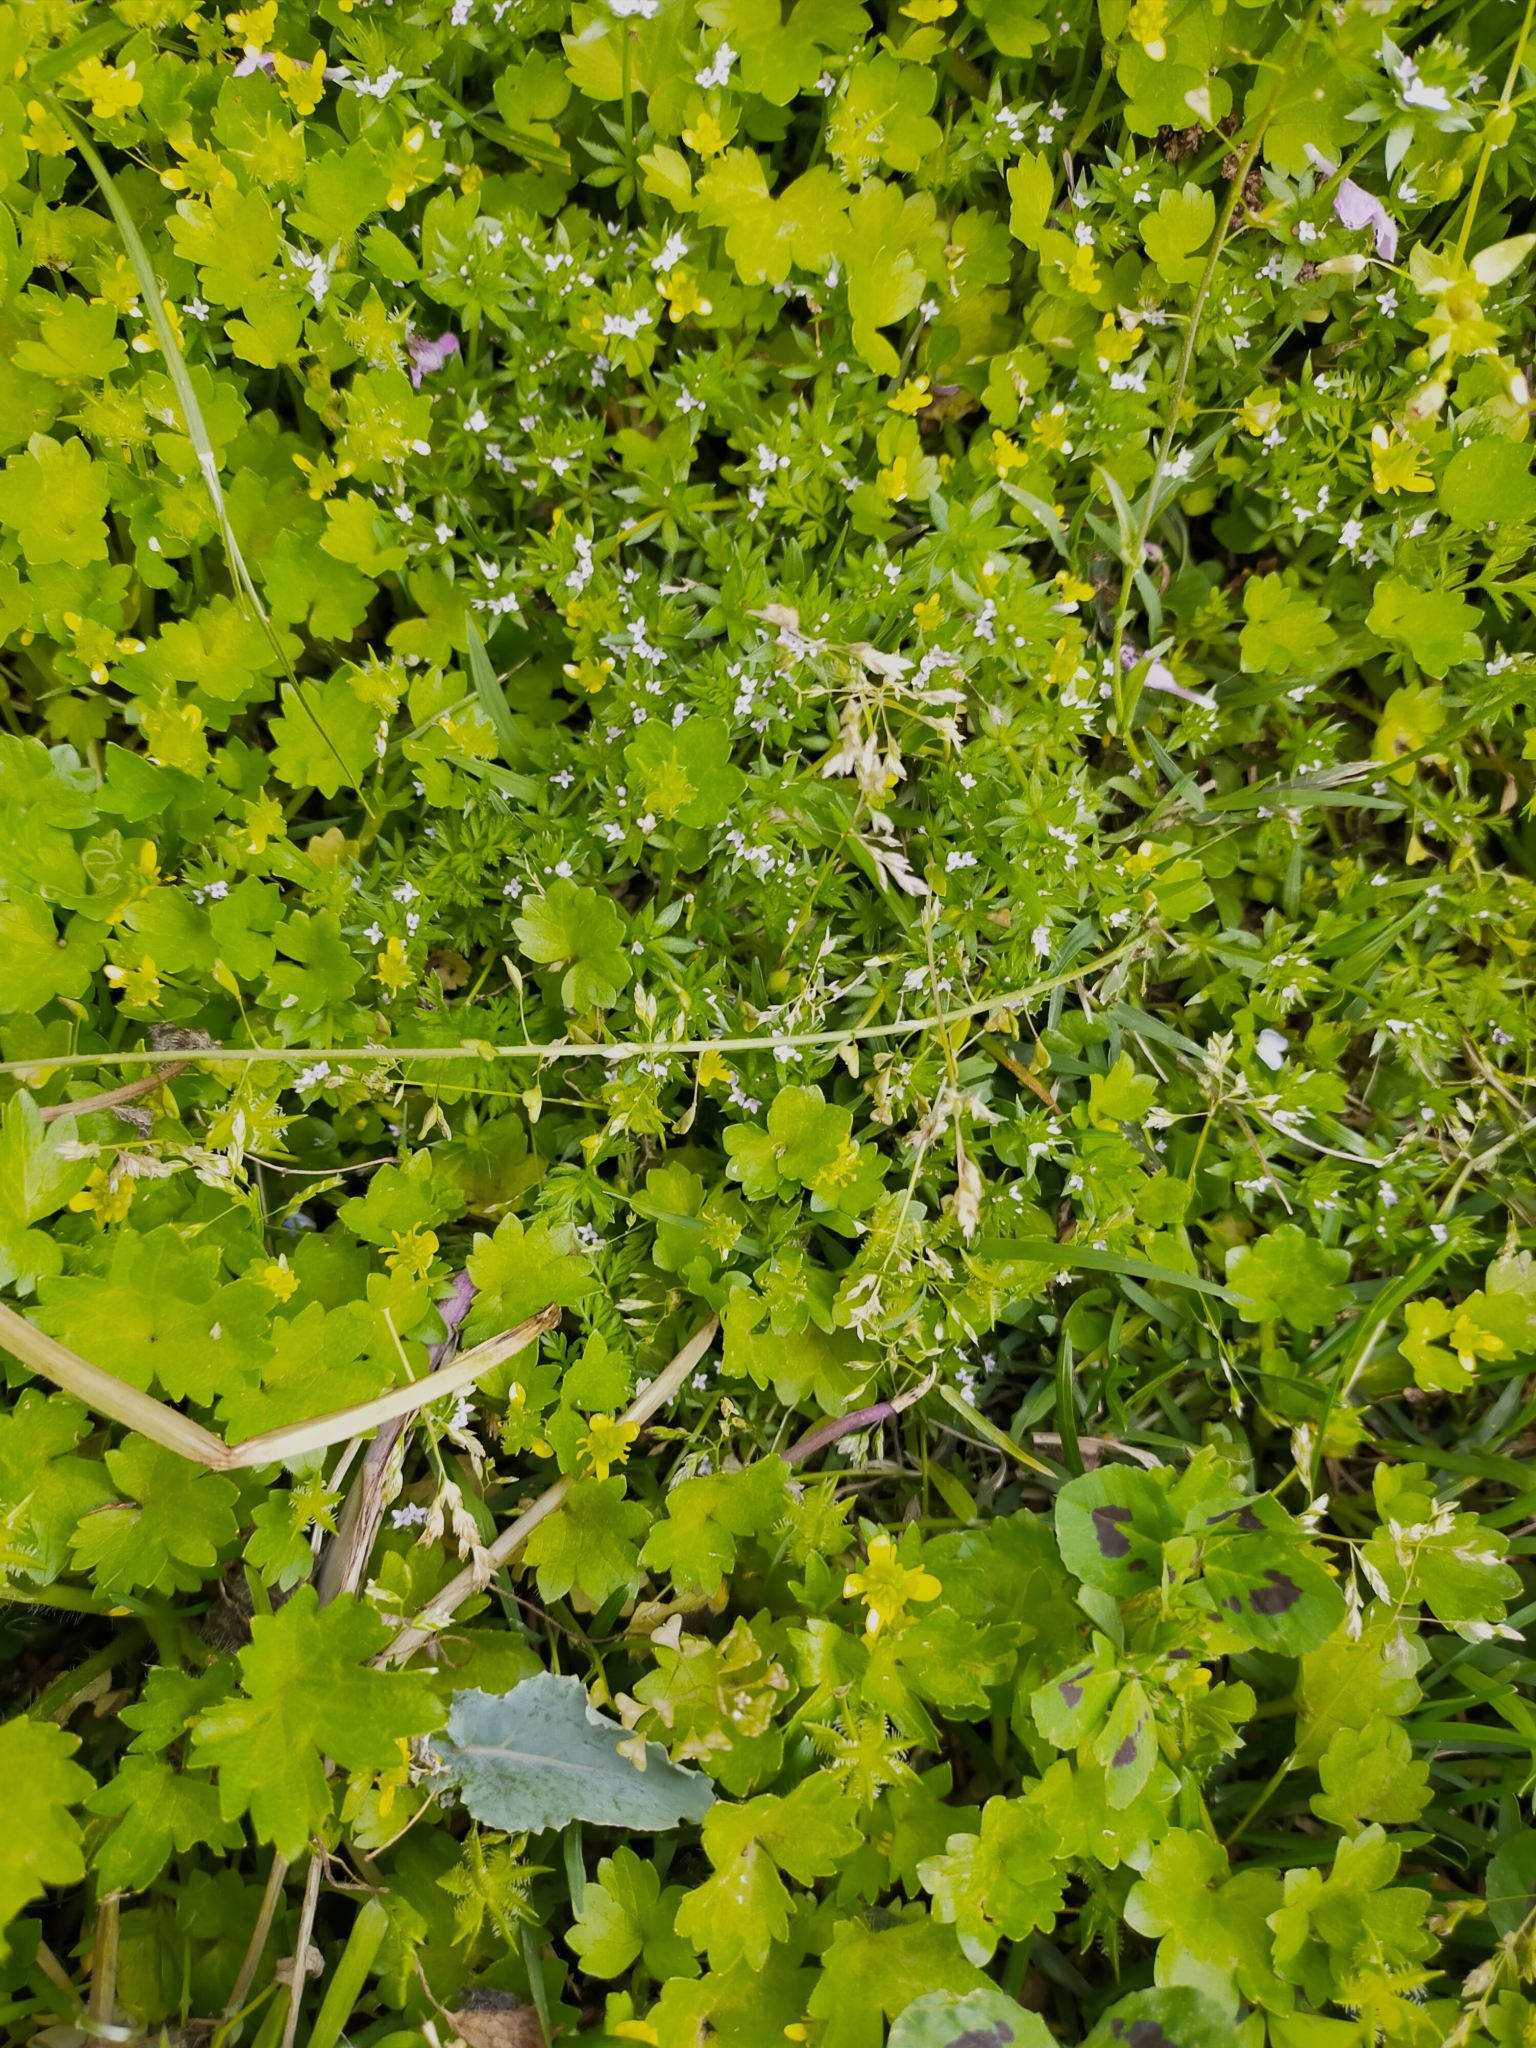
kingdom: Plantae
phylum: Tracheophyta
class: Magnoliopsida
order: Gentianales
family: Rubiaceae
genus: Sherardia
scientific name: Sherardia arvensis
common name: Field madder
